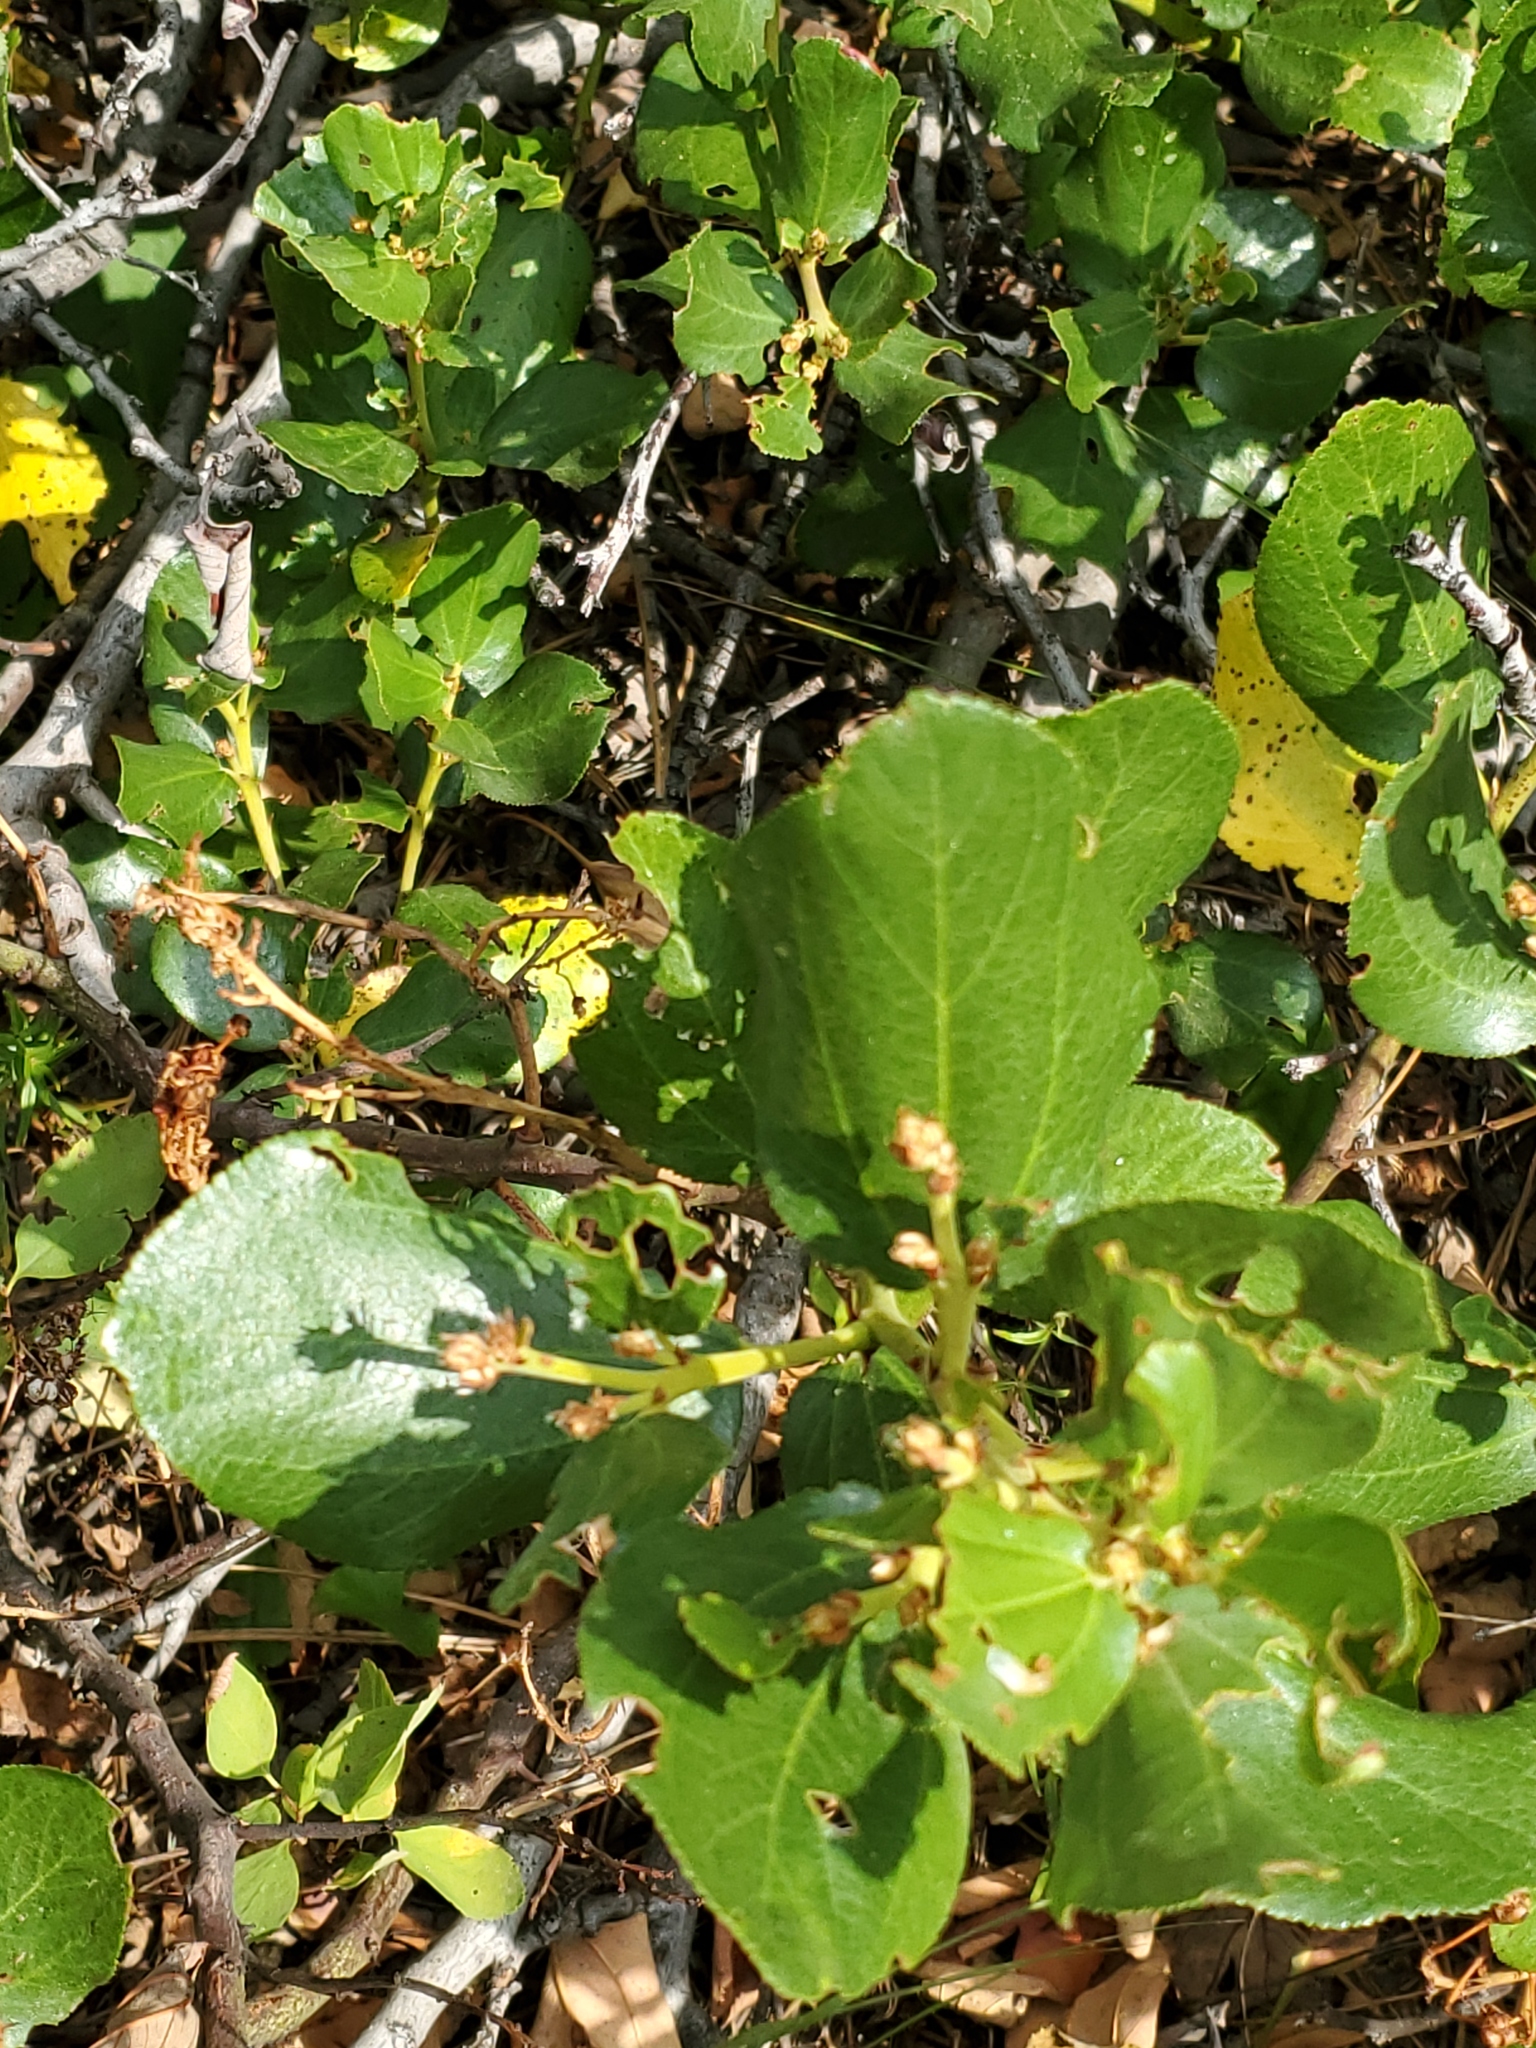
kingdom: Plantae
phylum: Tracheophyta
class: Magnoliopsida
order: Rosales
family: Rhamnaceae
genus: Ceanothus
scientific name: Ceanothus velutinus
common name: Snowbrush
